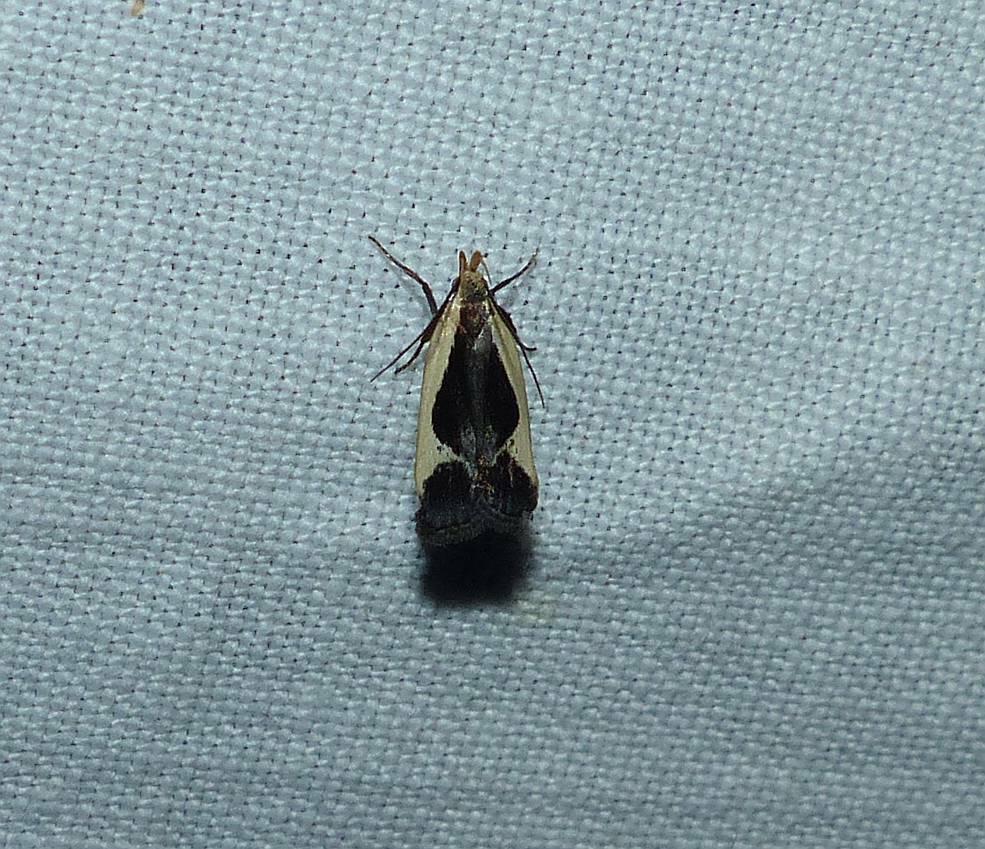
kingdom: Animalia
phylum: Arthropoda
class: Insecta
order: Lepidoptera
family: Gelechiidae
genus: Dichomeris
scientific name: Dichomeris flavocostella
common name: Cream-edged dichomeris moth
